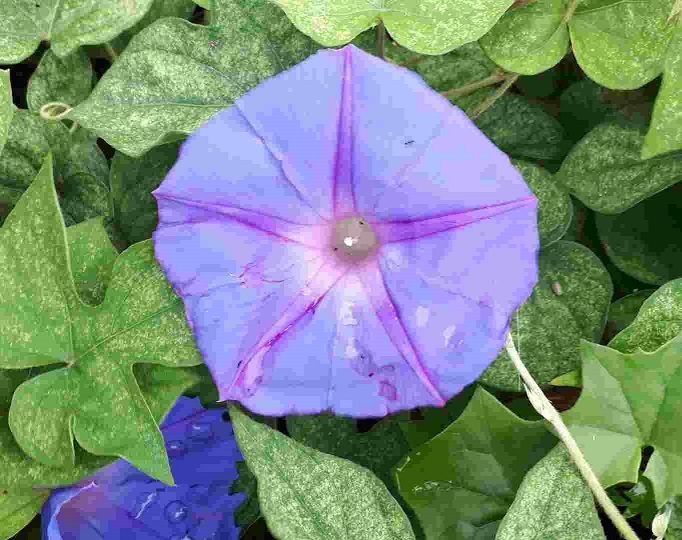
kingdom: Plantae
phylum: Tracheophyta
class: Magnoliopsida
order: Solanales
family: Convolvulaceae
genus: Ipomoea
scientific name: Ipomoea indica
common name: Blue dawnflower
